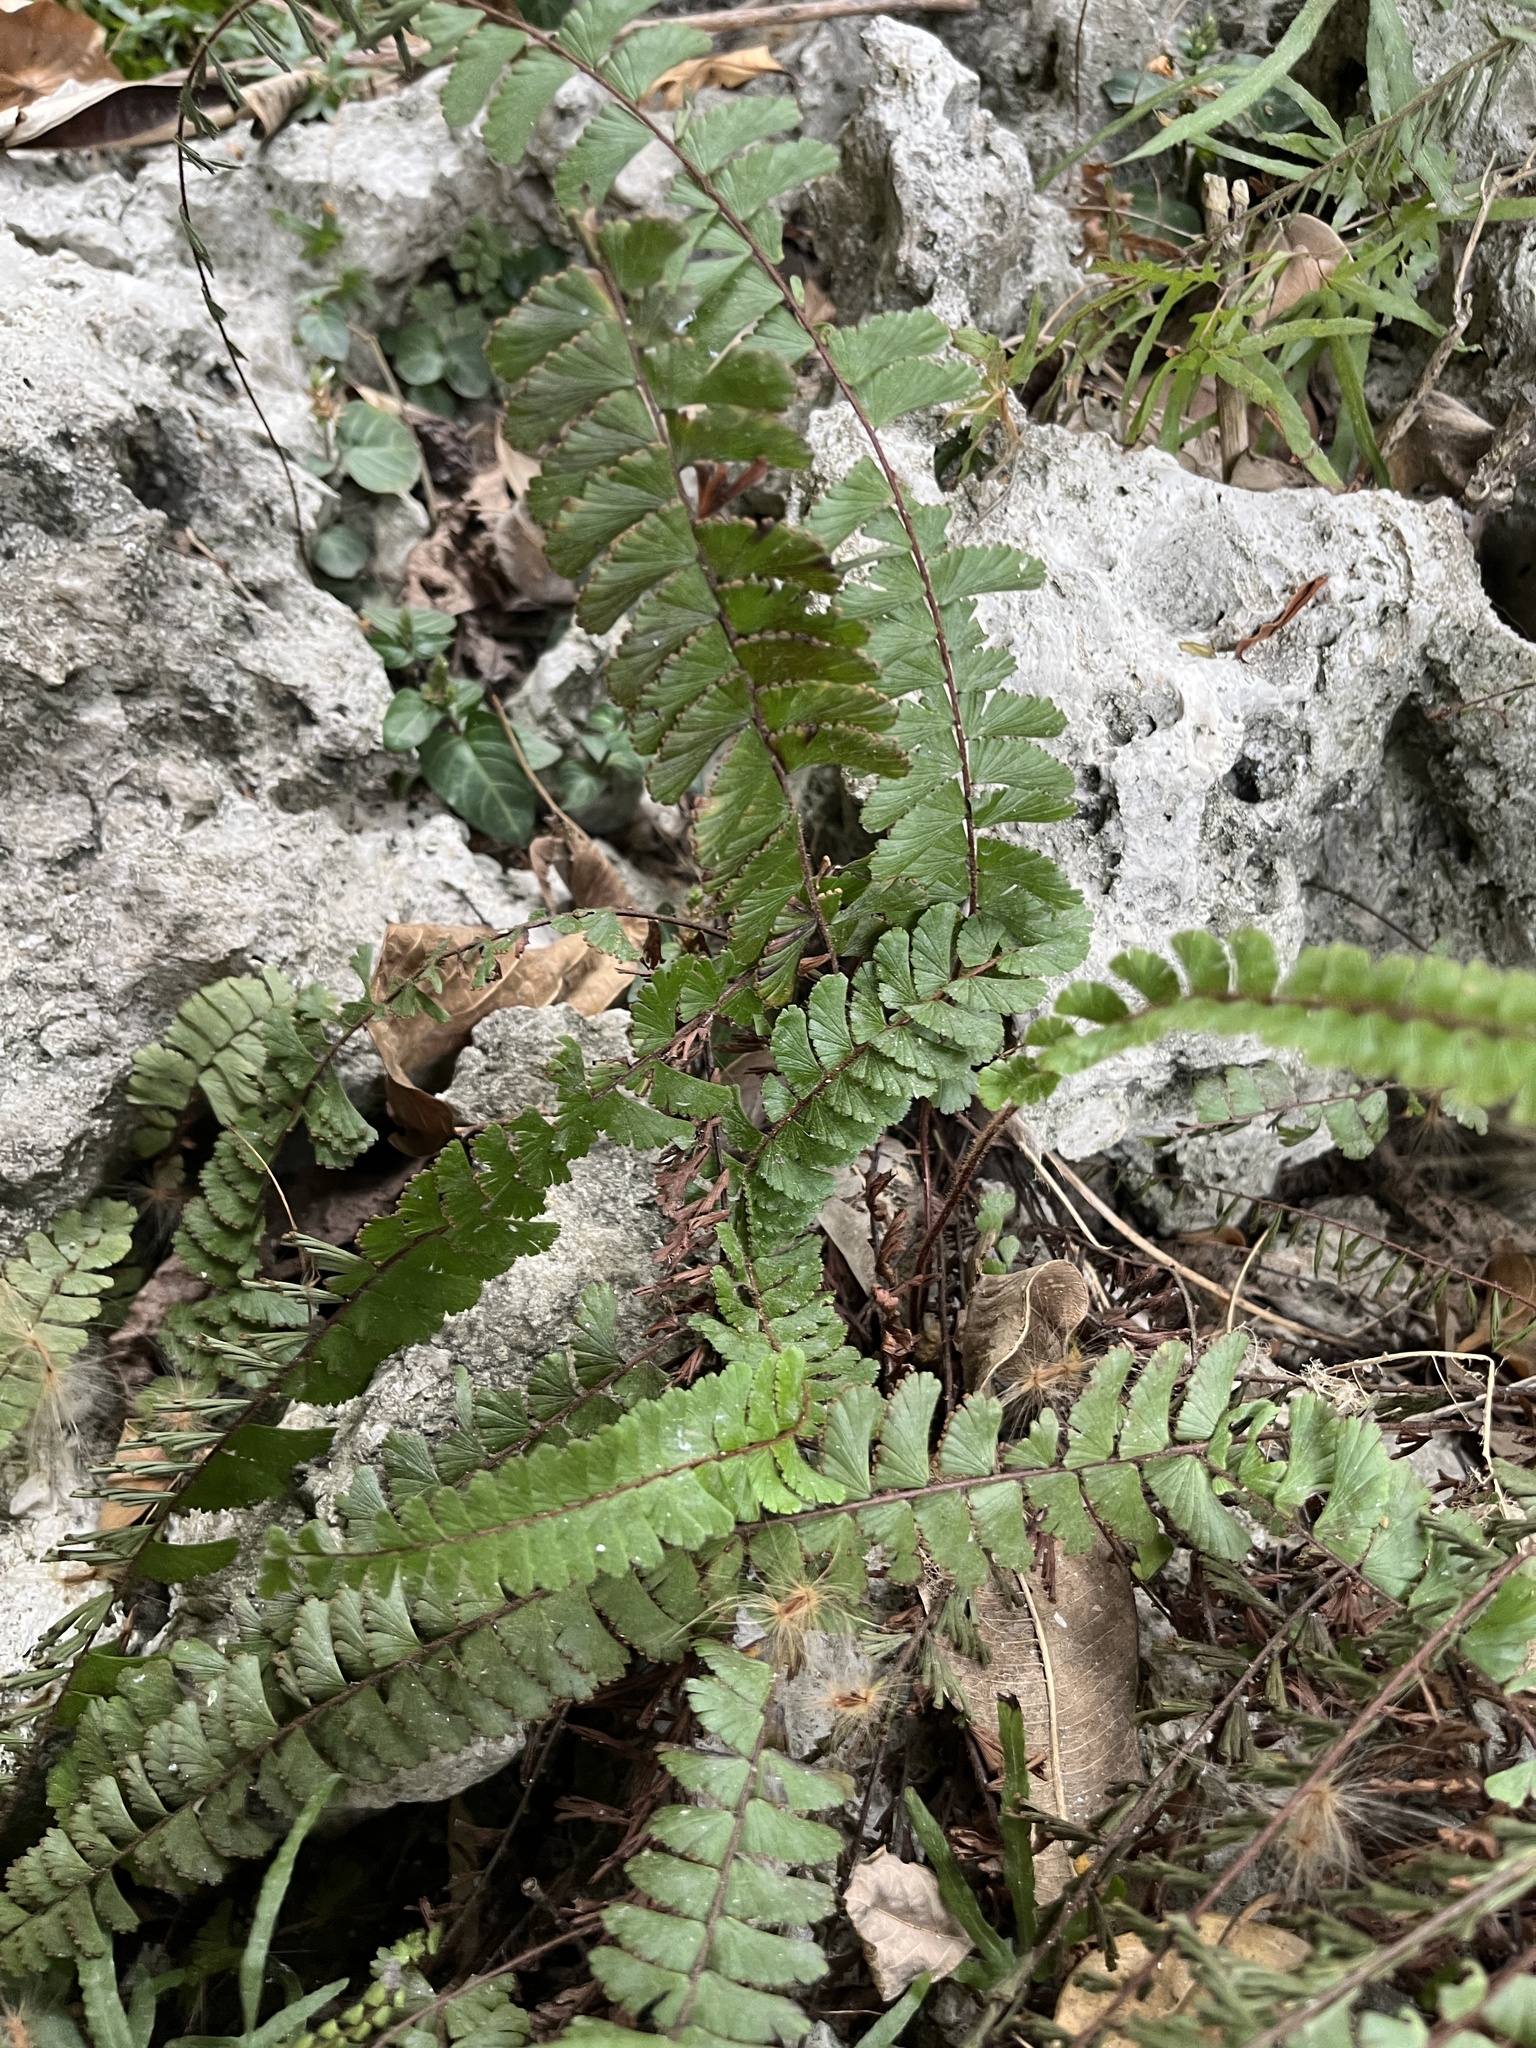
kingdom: Plantae
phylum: Tracheophyta
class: Polypodiopsida
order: Polypodiales
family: Pteridaceae
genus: Adiantum
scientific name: Adiantum caudatum
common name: Tailed maidenhair
